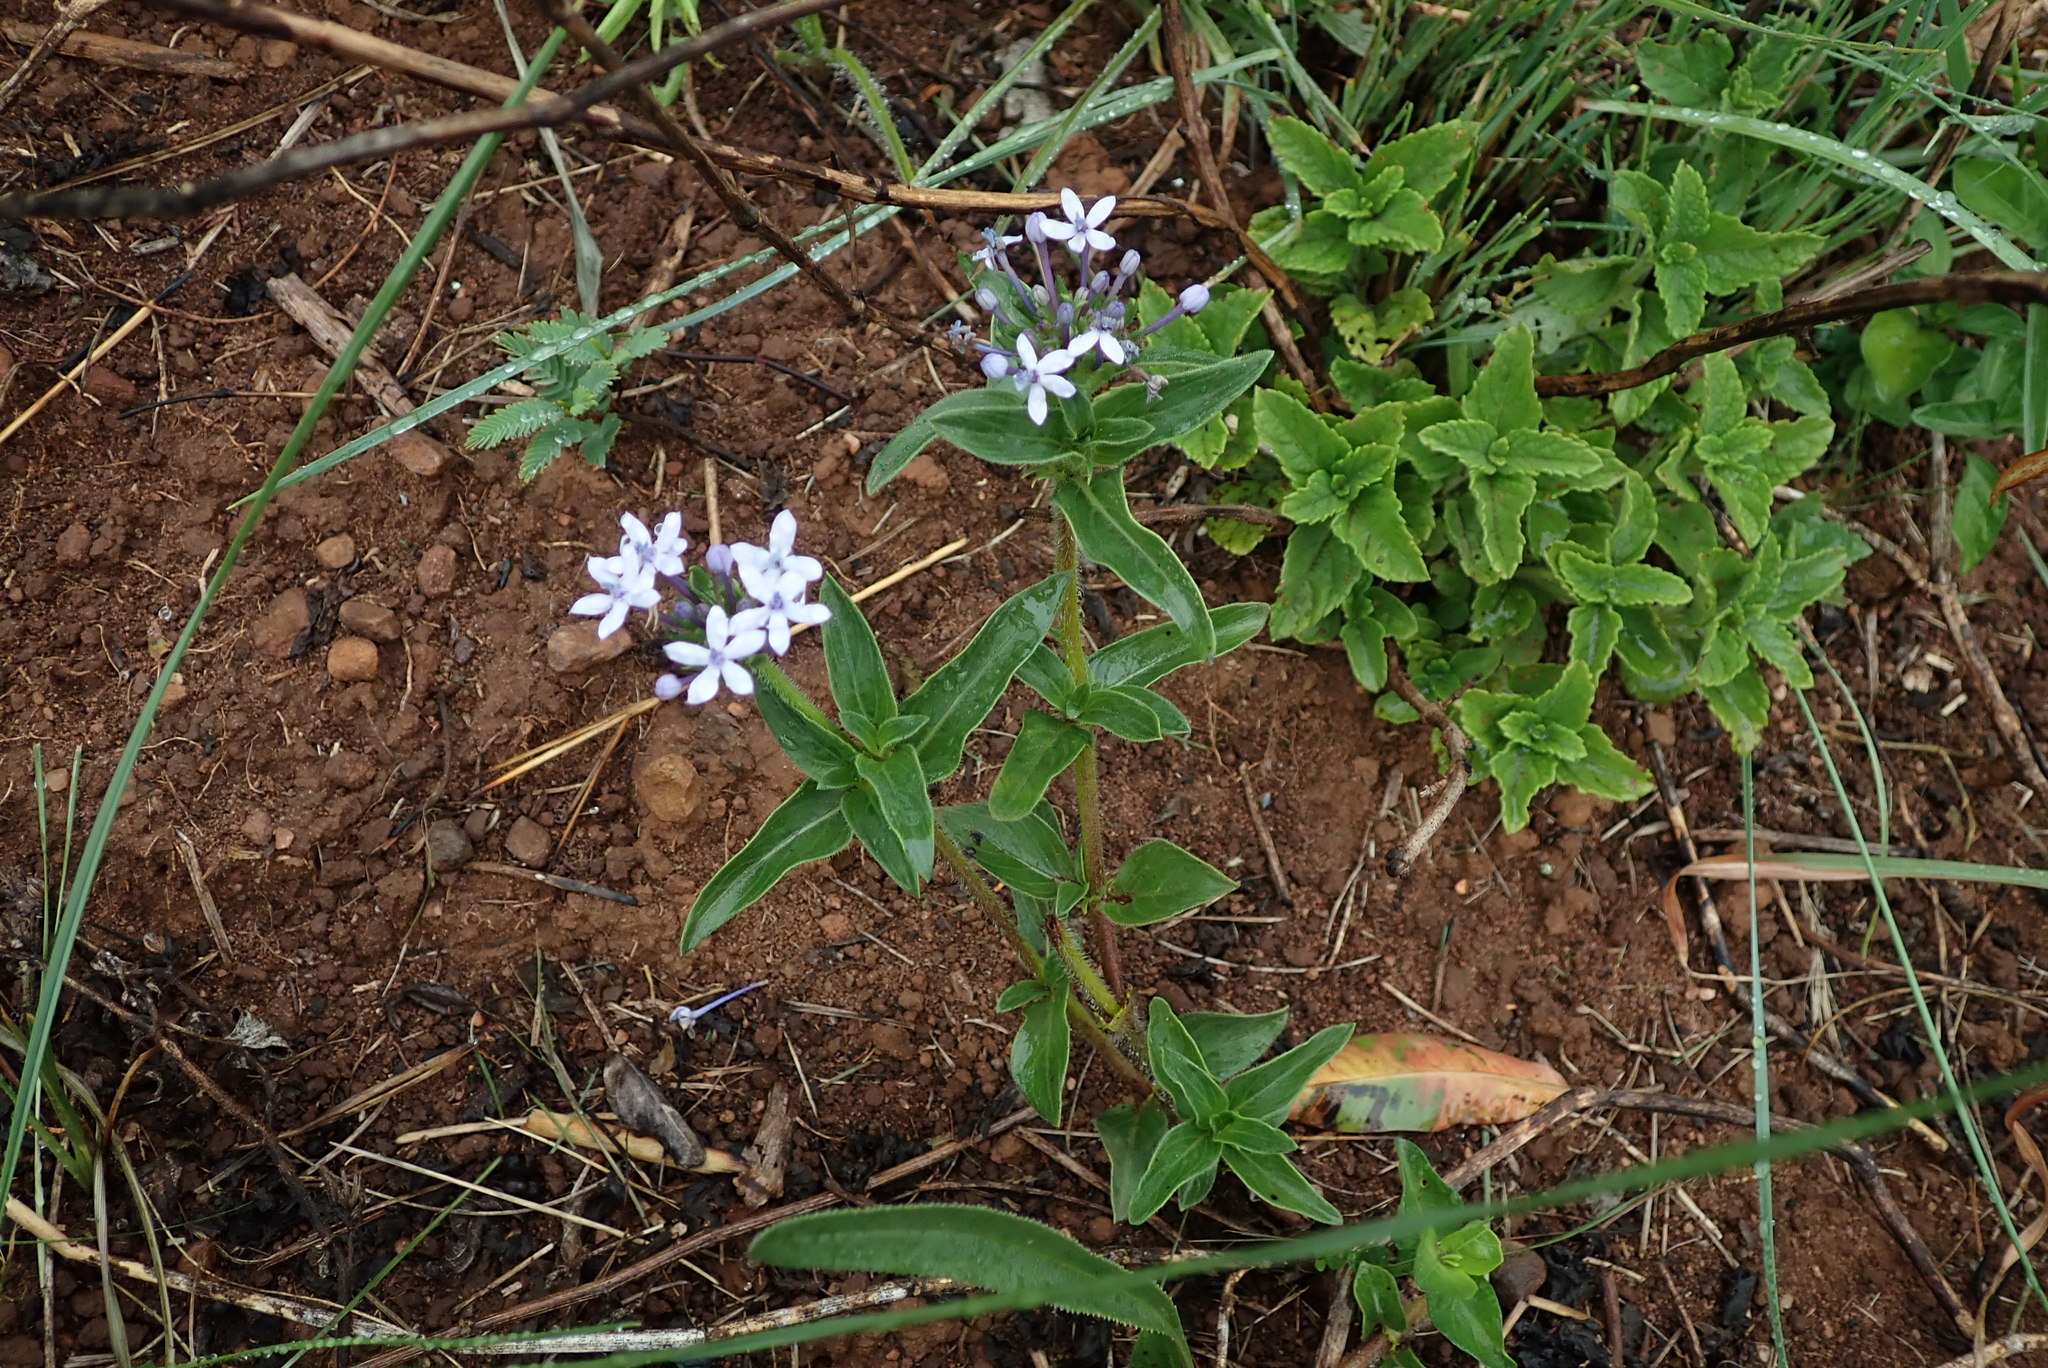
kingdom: Plantae
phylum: Tracheophyta
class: Magnoliopsida
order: Gentianales
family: Rubiaceae
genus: Pentanisia
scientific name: Pentanisia prunelloides
